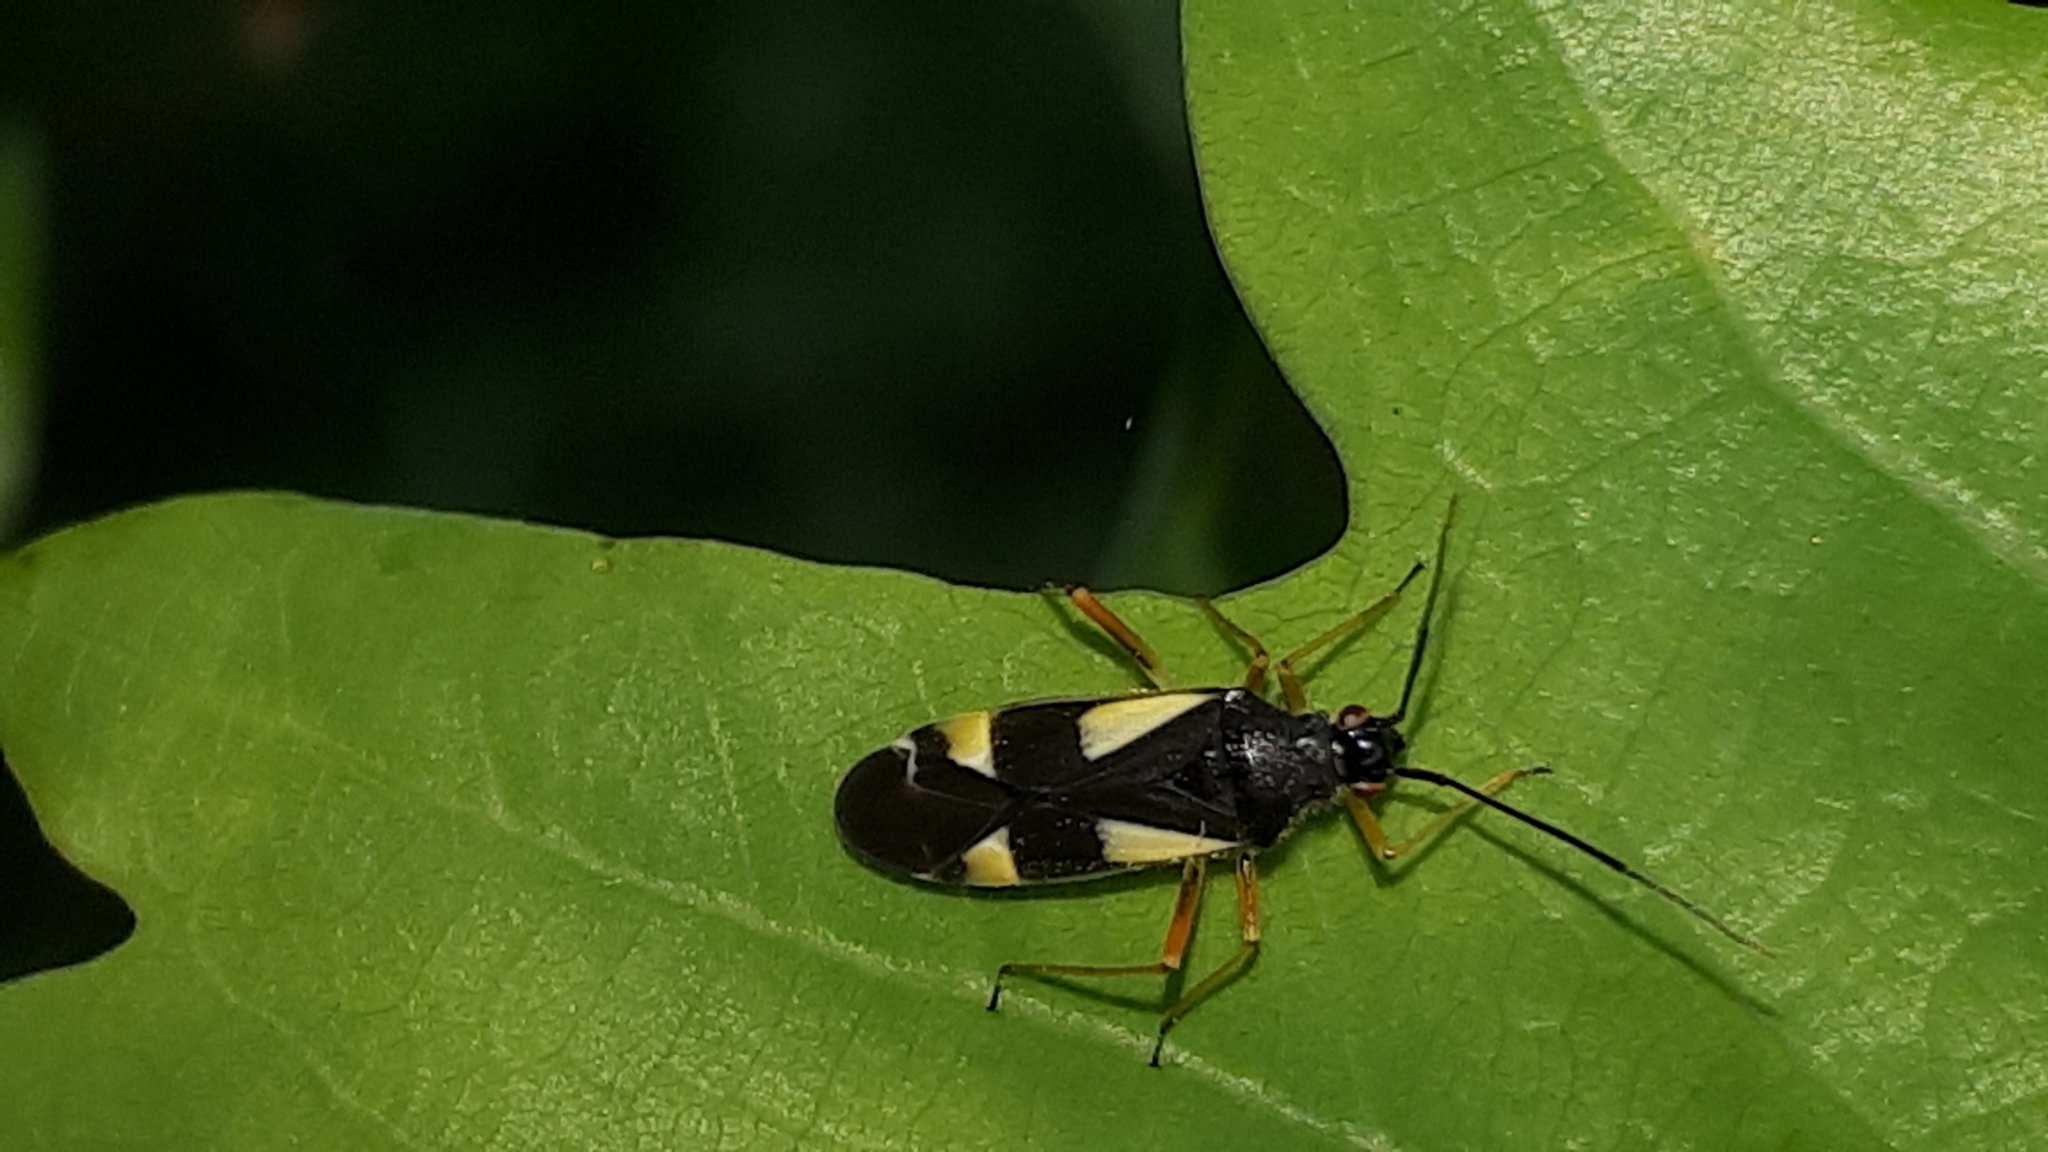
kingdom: Animalia
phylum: Arthropoda
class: Insecta
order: Hemiptera
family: Miridae
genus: Dryophilocoris
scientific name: Dryophilocoris flavoquadrimaculatus
